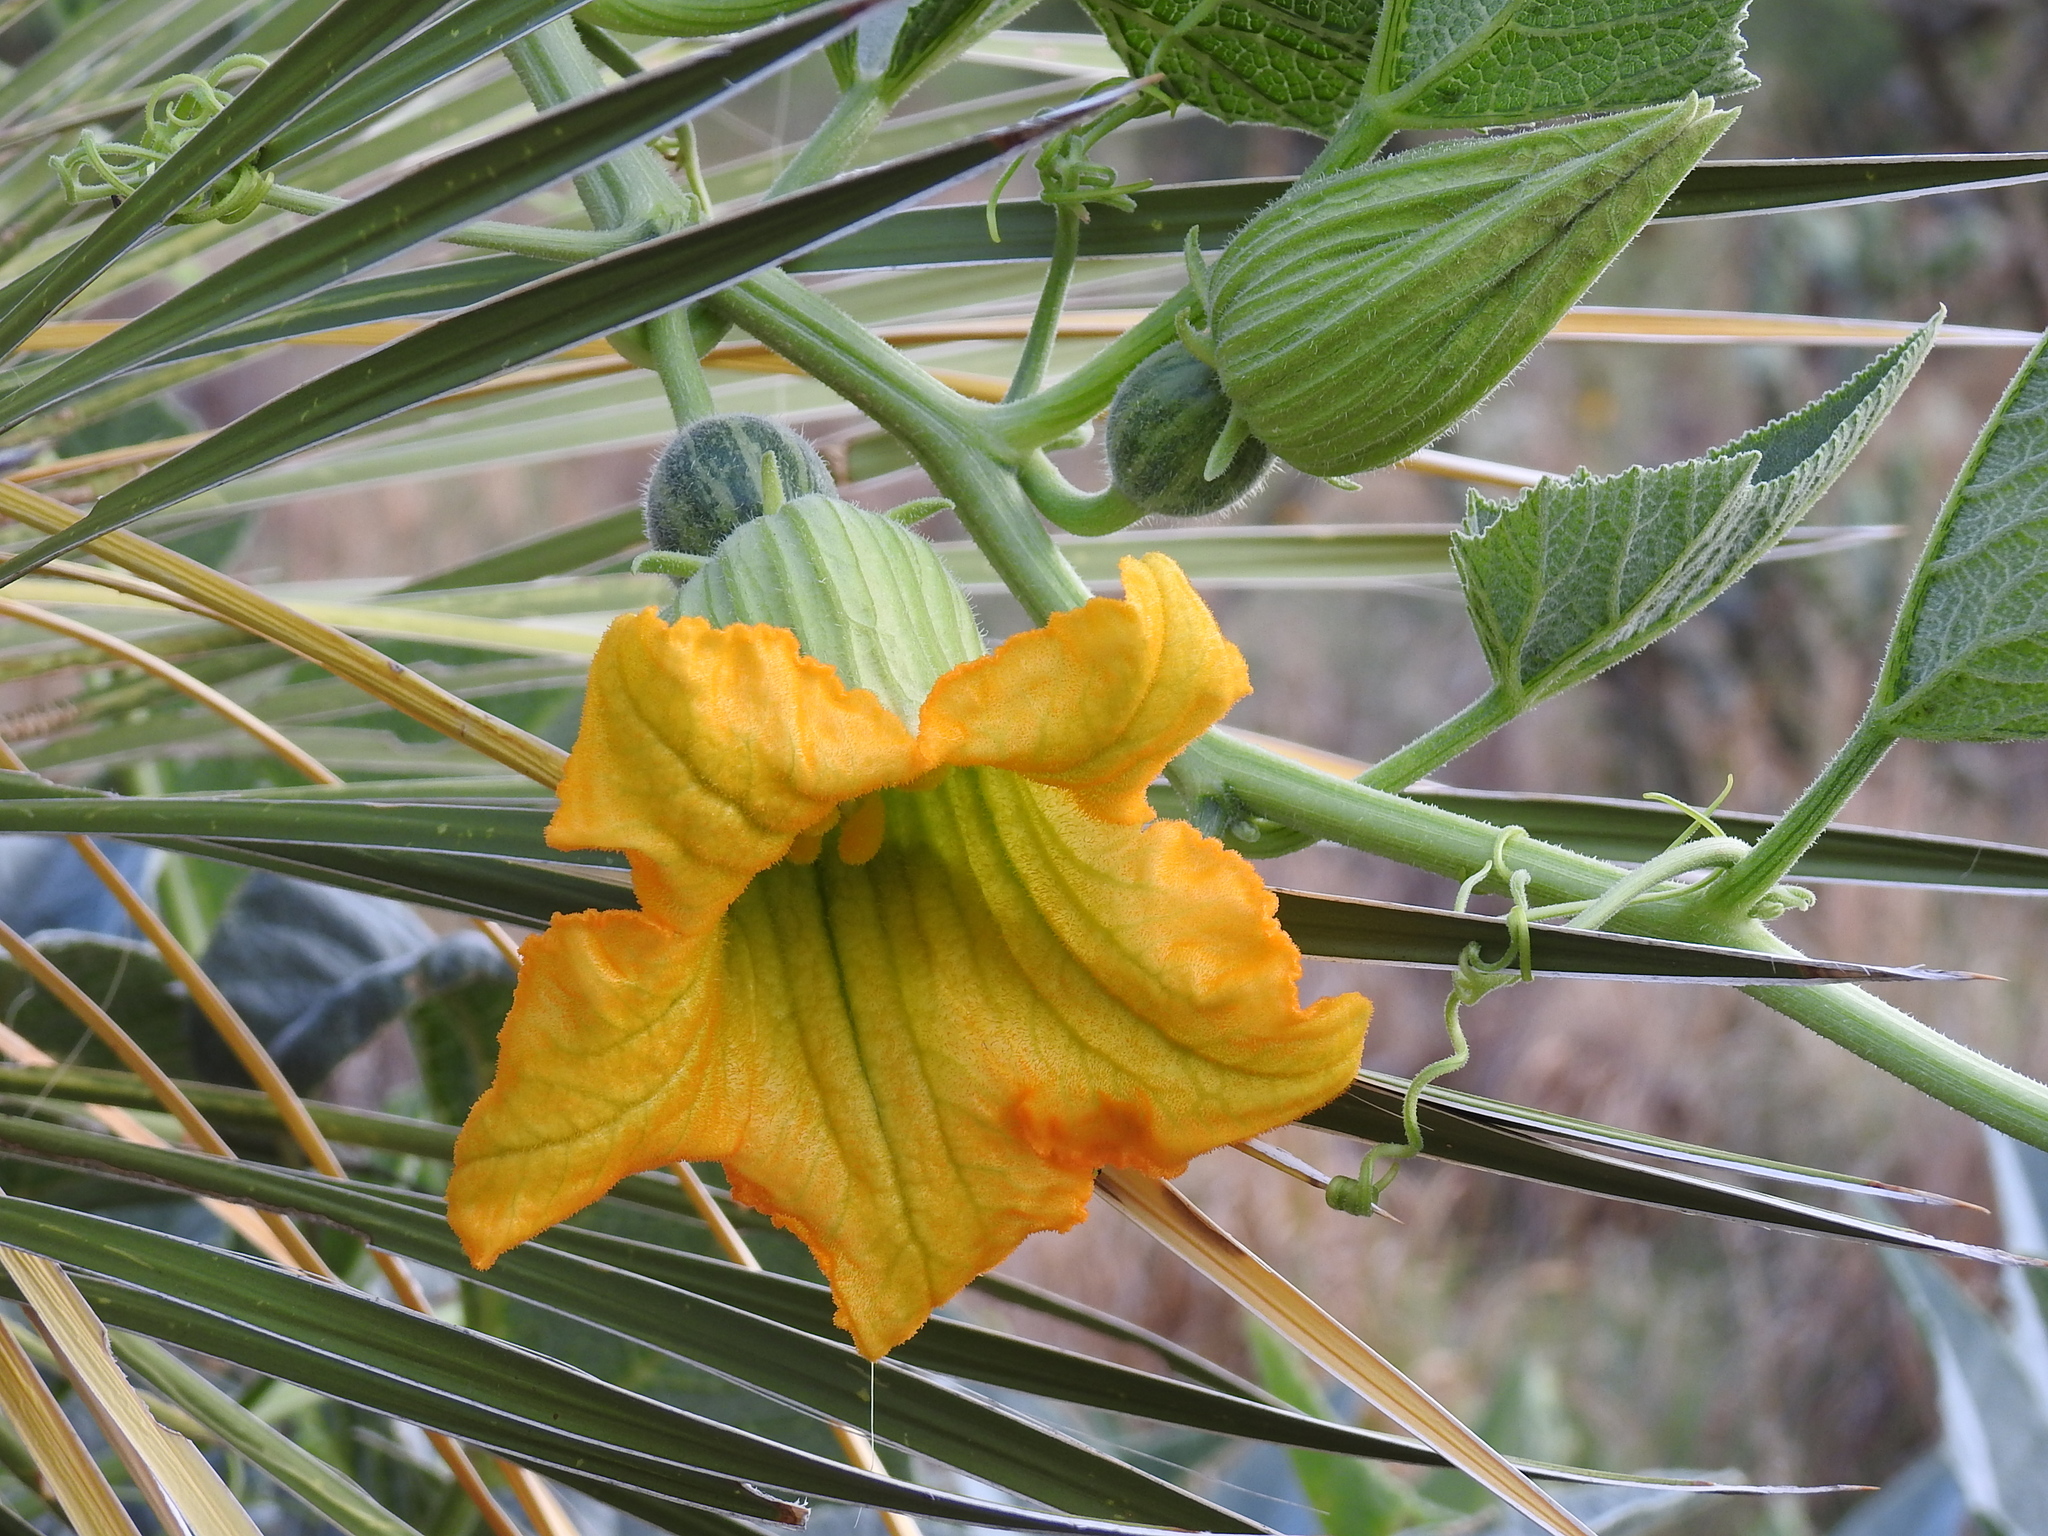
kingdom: Plantae
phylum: Tracheophyta
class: Magnoliopsida
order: Cucurbitales
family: Cucurbitaceae
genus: Cucurbita
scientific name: Cucurbita foetidissima
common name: Buffalo gourd
